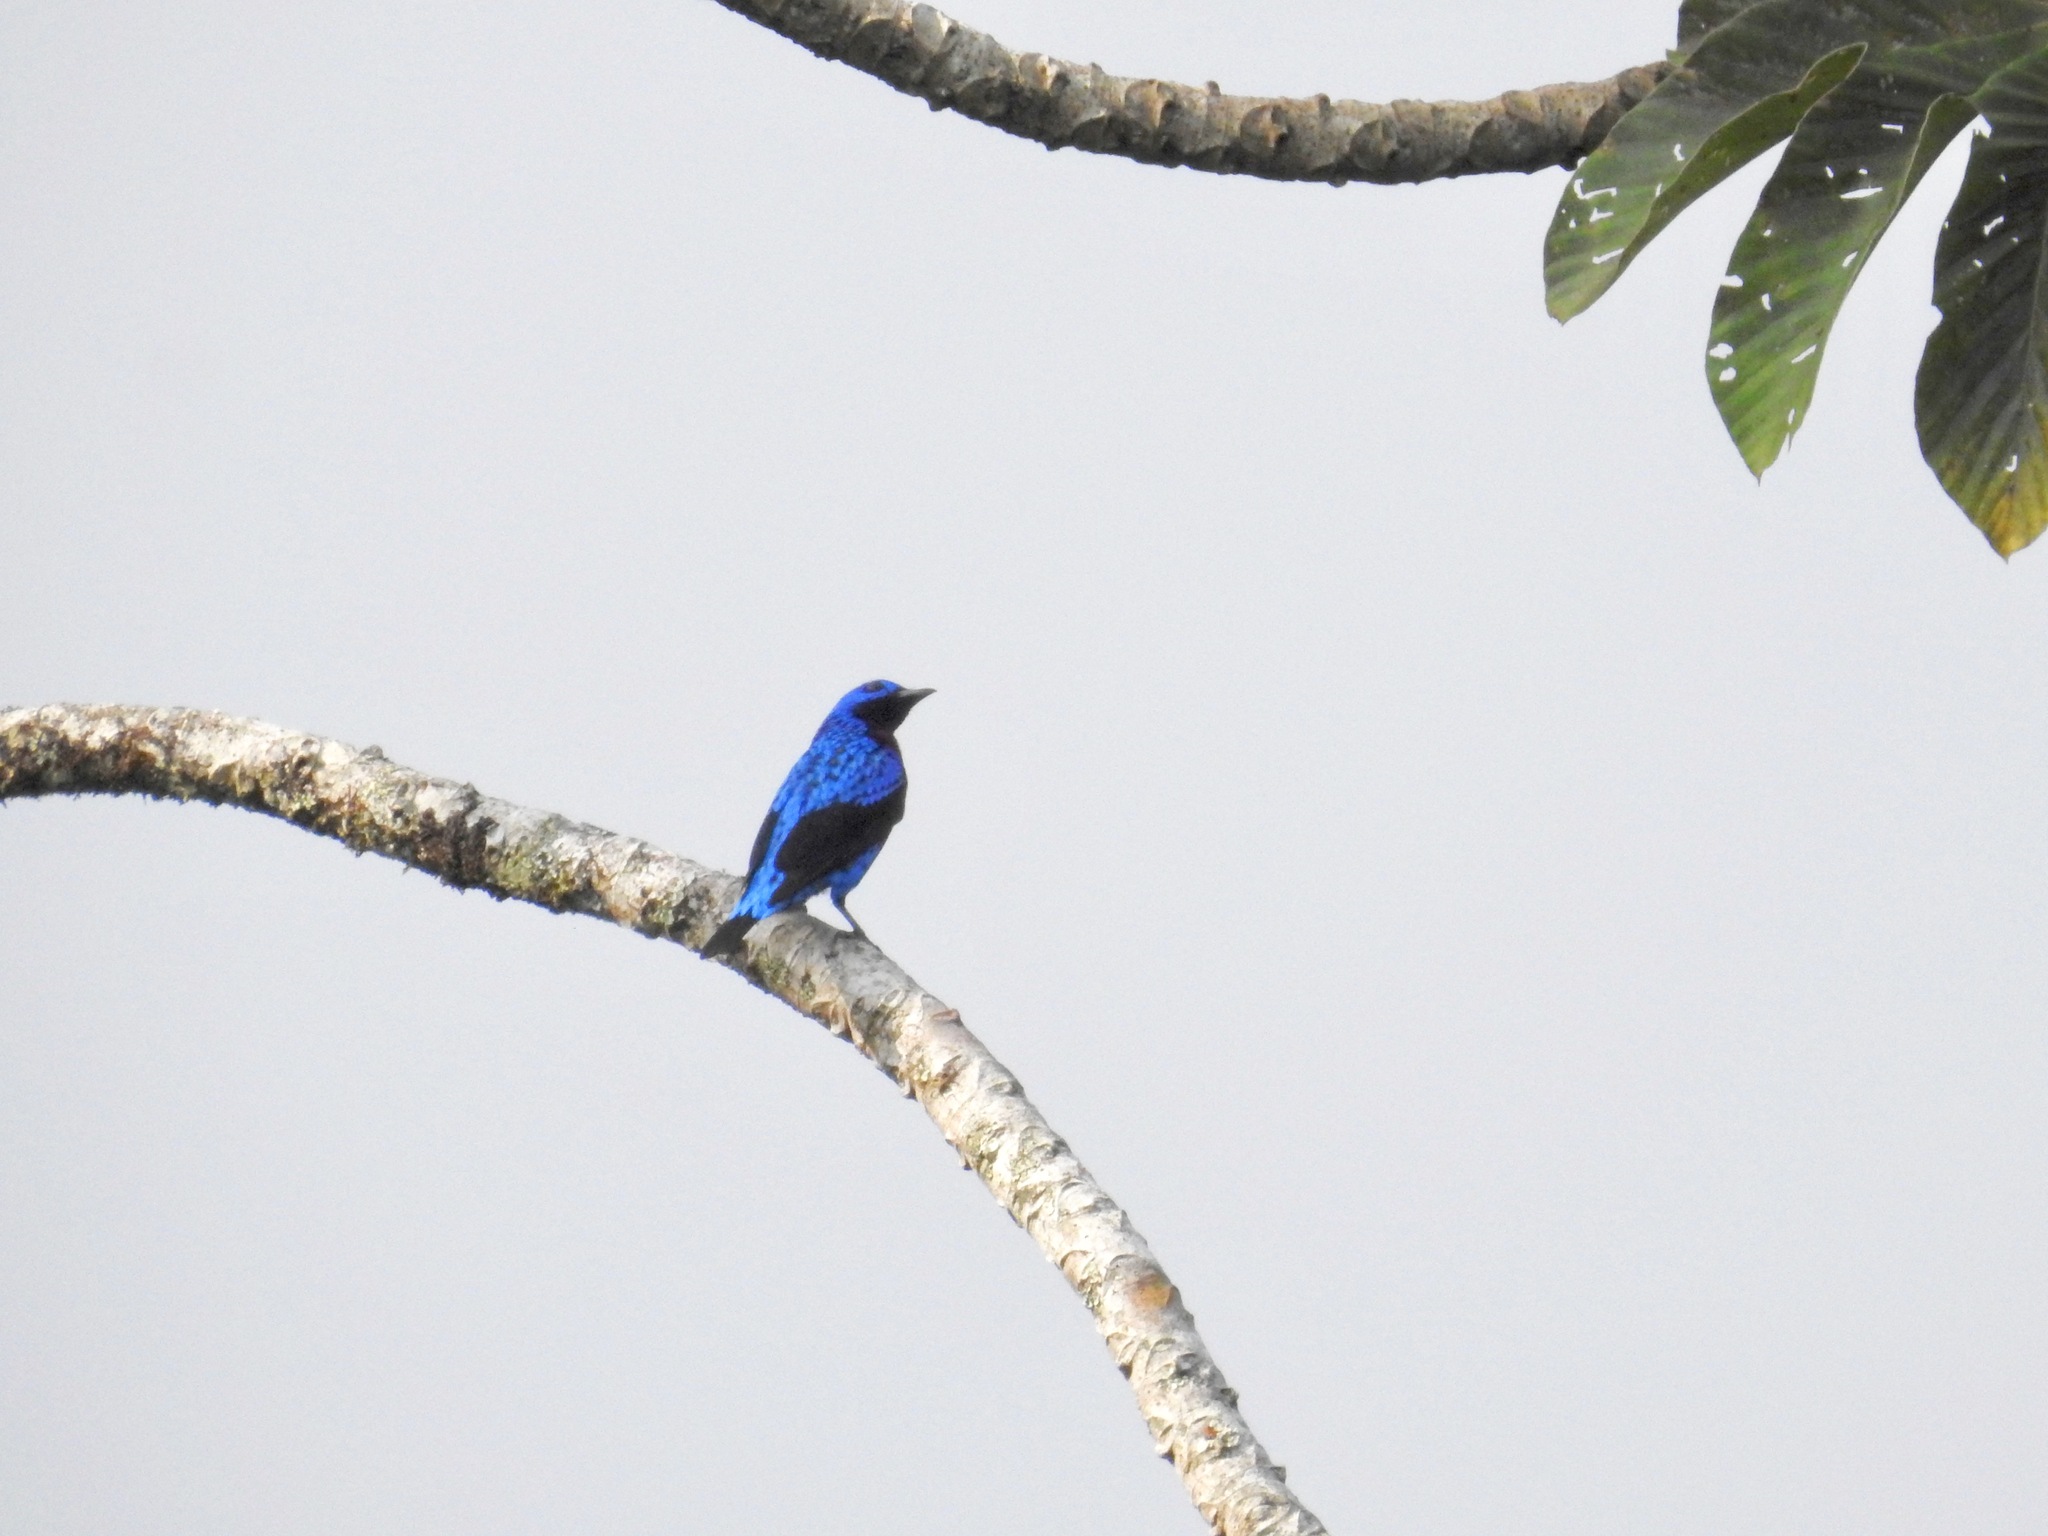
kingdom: Animalia
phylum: Chordata
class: Aves
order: Passeriformes
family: Cotingidae
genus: Cotinga
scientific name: Cotinga maculata
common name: Banded cotinga
